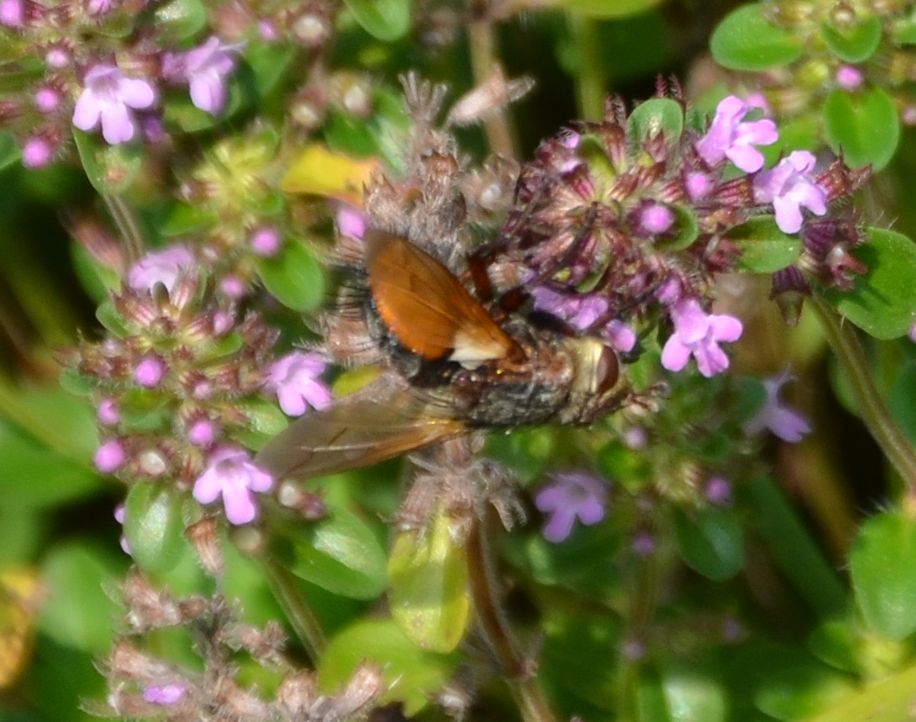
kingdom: Animalia
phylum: Arthropoda
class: Insecta
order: Diptera
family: Tachinidae
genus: Tachina
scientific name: Tachina fera
